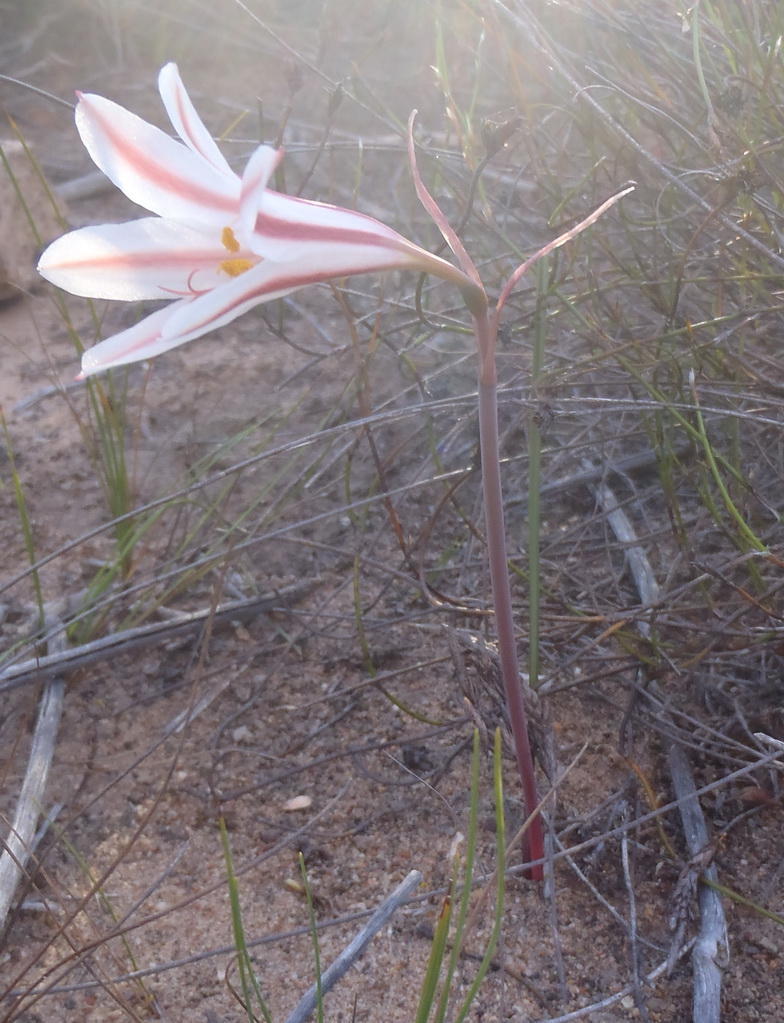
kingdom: Plantae
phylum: Tracheophyta
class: Liliopsida
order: Asparagales
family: Amaryllidaceae
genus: Cyrtanthus
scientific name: Cyrtanthus smithiae
